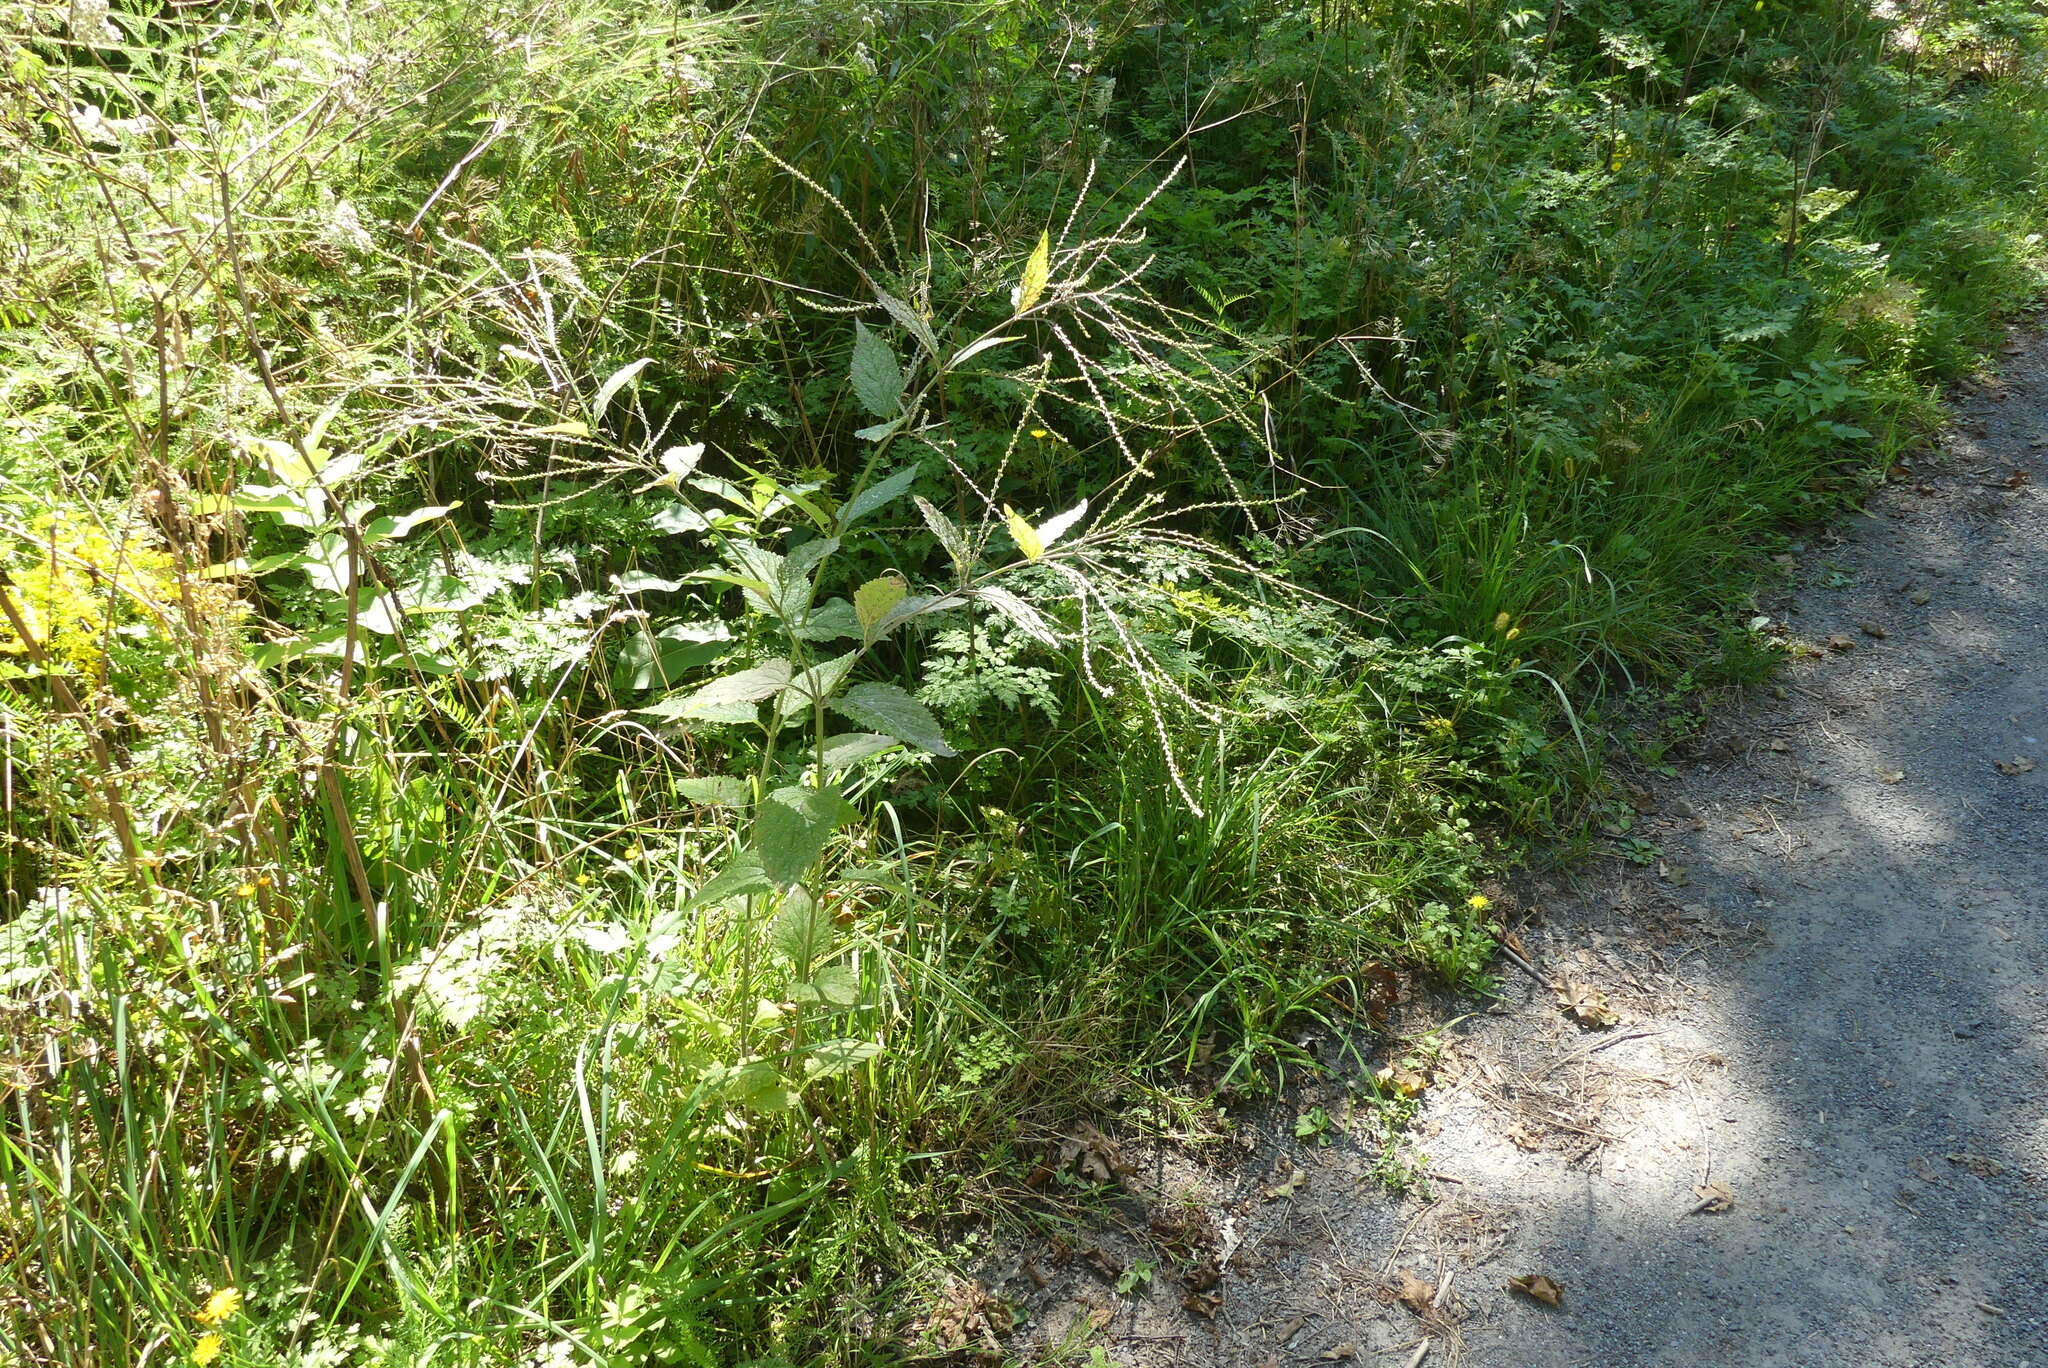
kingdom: Plantae
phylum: Tracheophyta
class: Magnoliopsida
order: Lamiales
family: Verbenaceae
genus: Verbena
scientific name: Verbena urticifolia
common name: Nettle-leaved vervain
